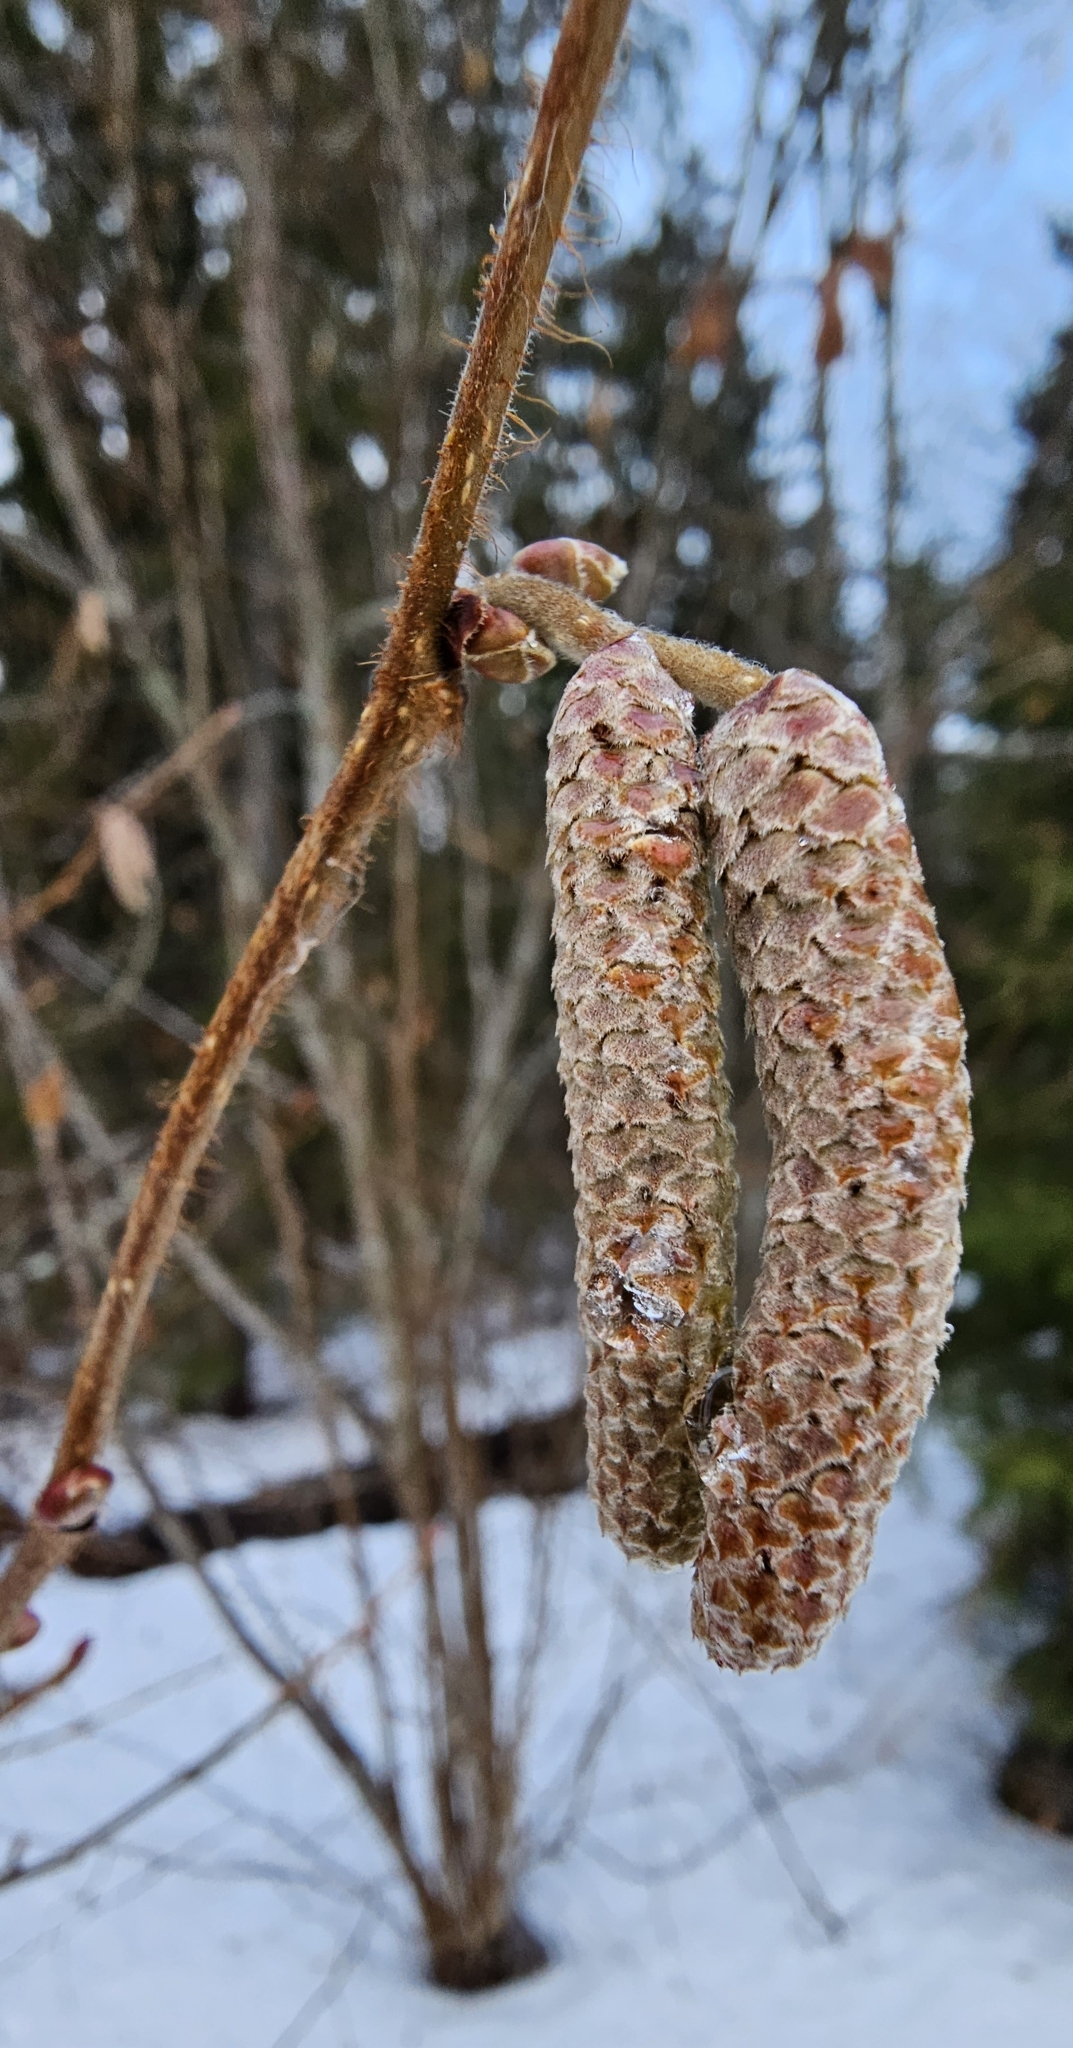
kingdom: Plantae
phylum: Tracheophyta
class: Magnoliopsida
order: Fagales
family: Betulaceae
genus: Corylus
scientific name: Corylus avellana
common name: European hazel
